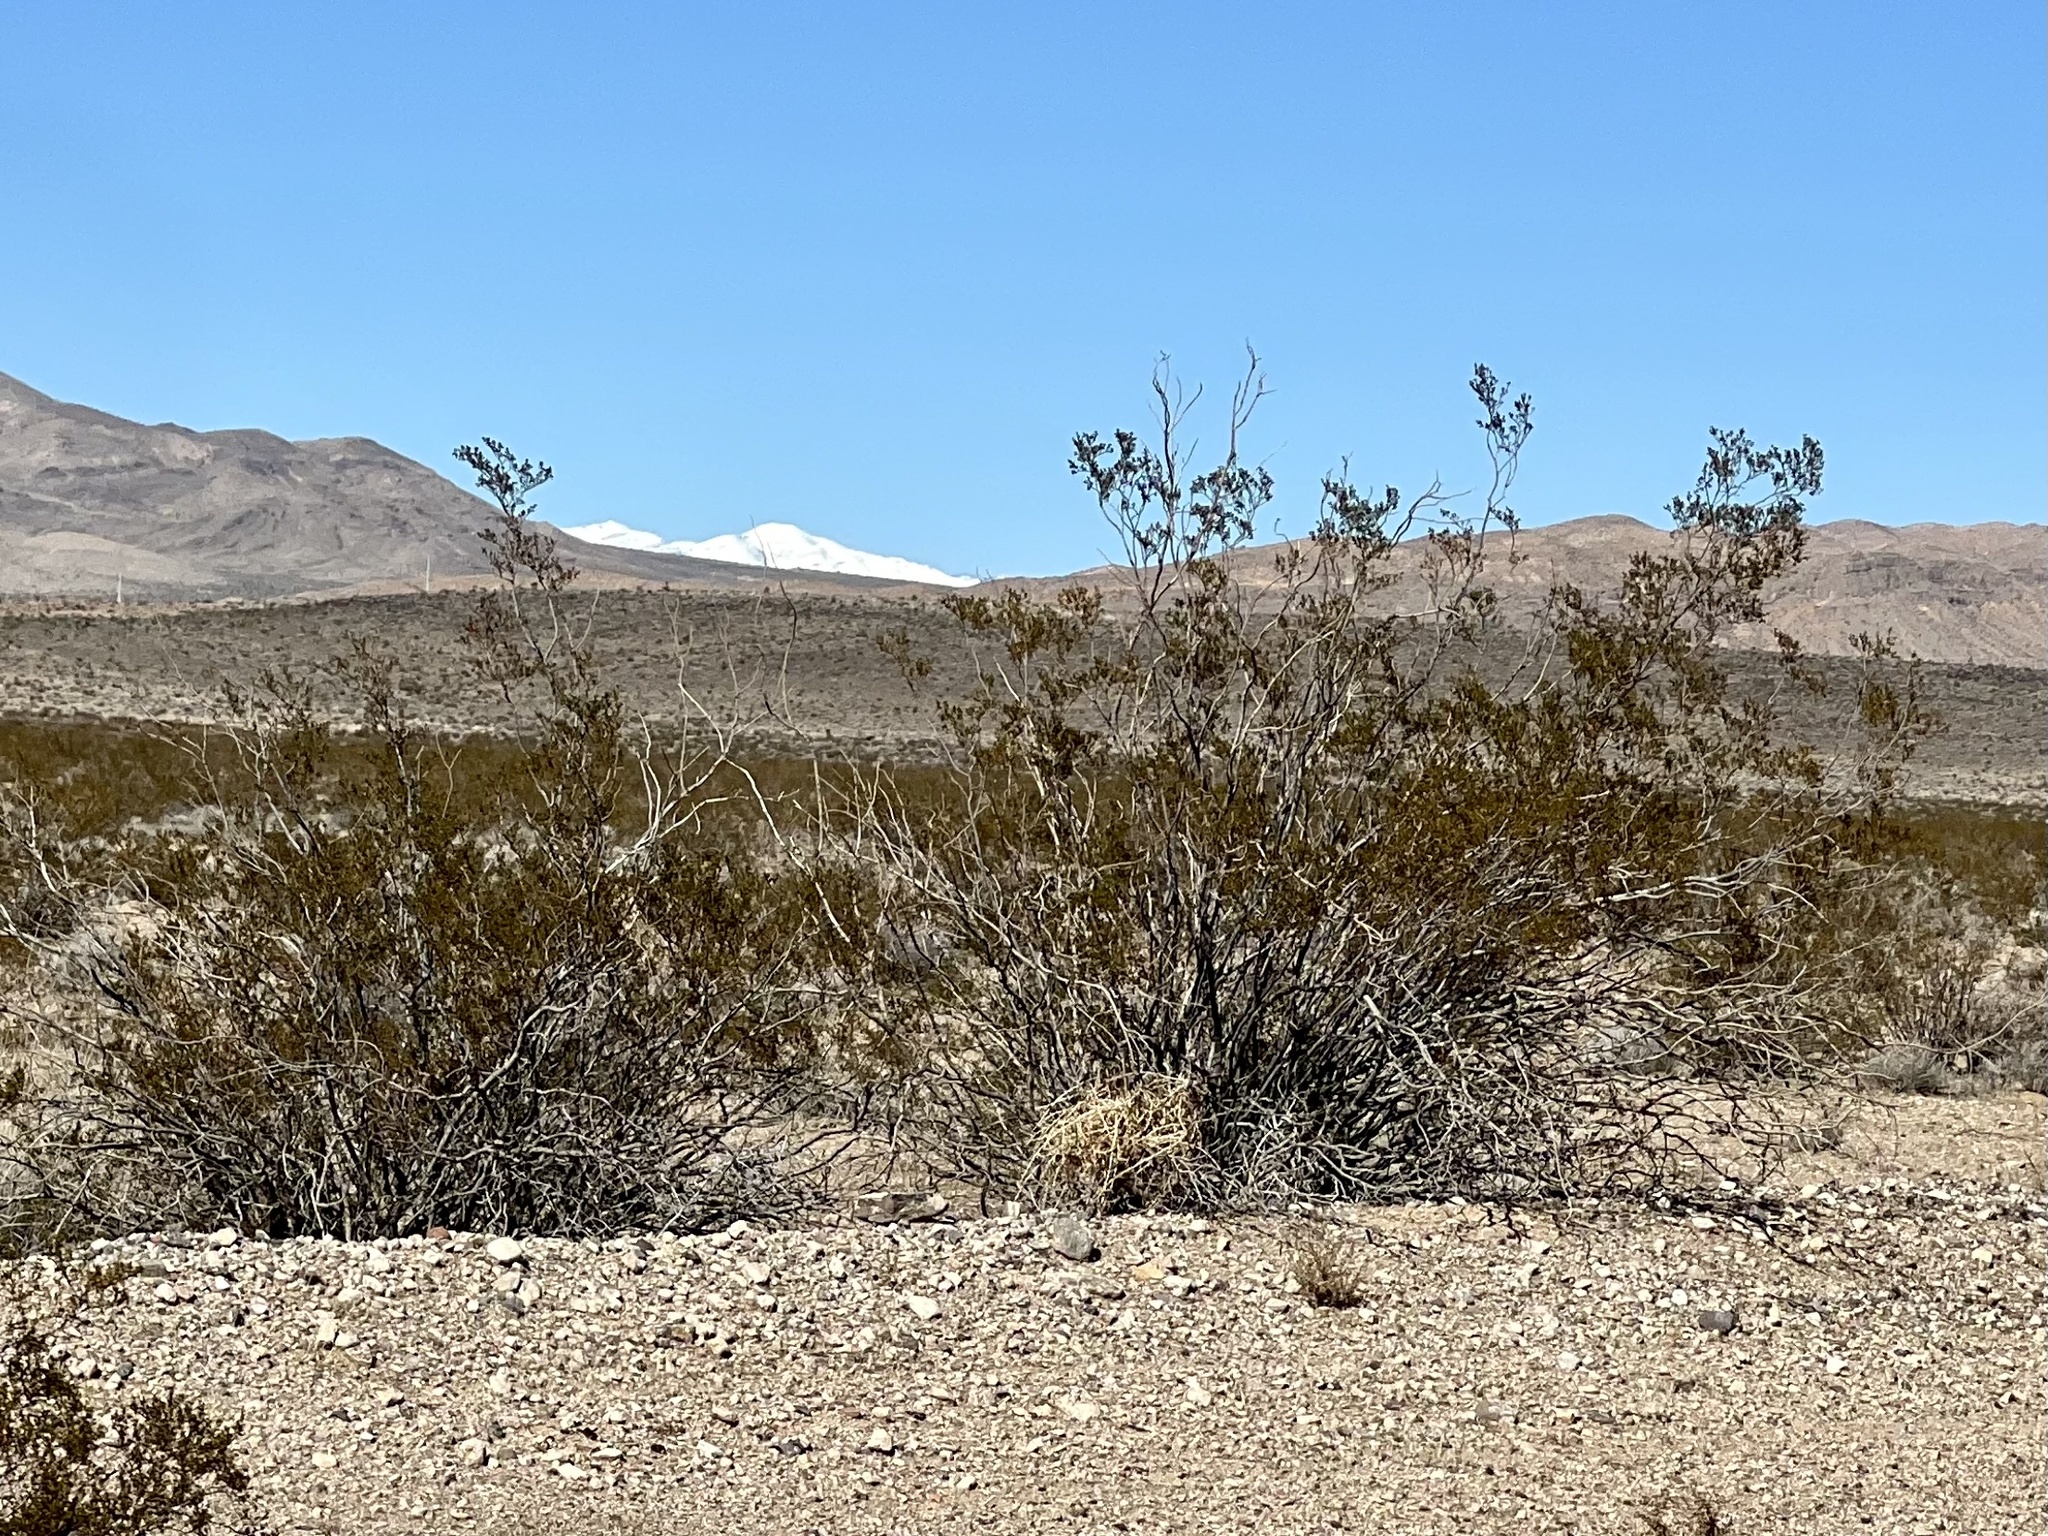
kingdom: Plantae
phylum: Tracheophyta
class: Magnoliopsida
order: Zygophyllales
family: Zygophyllaceae
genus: Larrea
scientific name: Larrea tridentata
